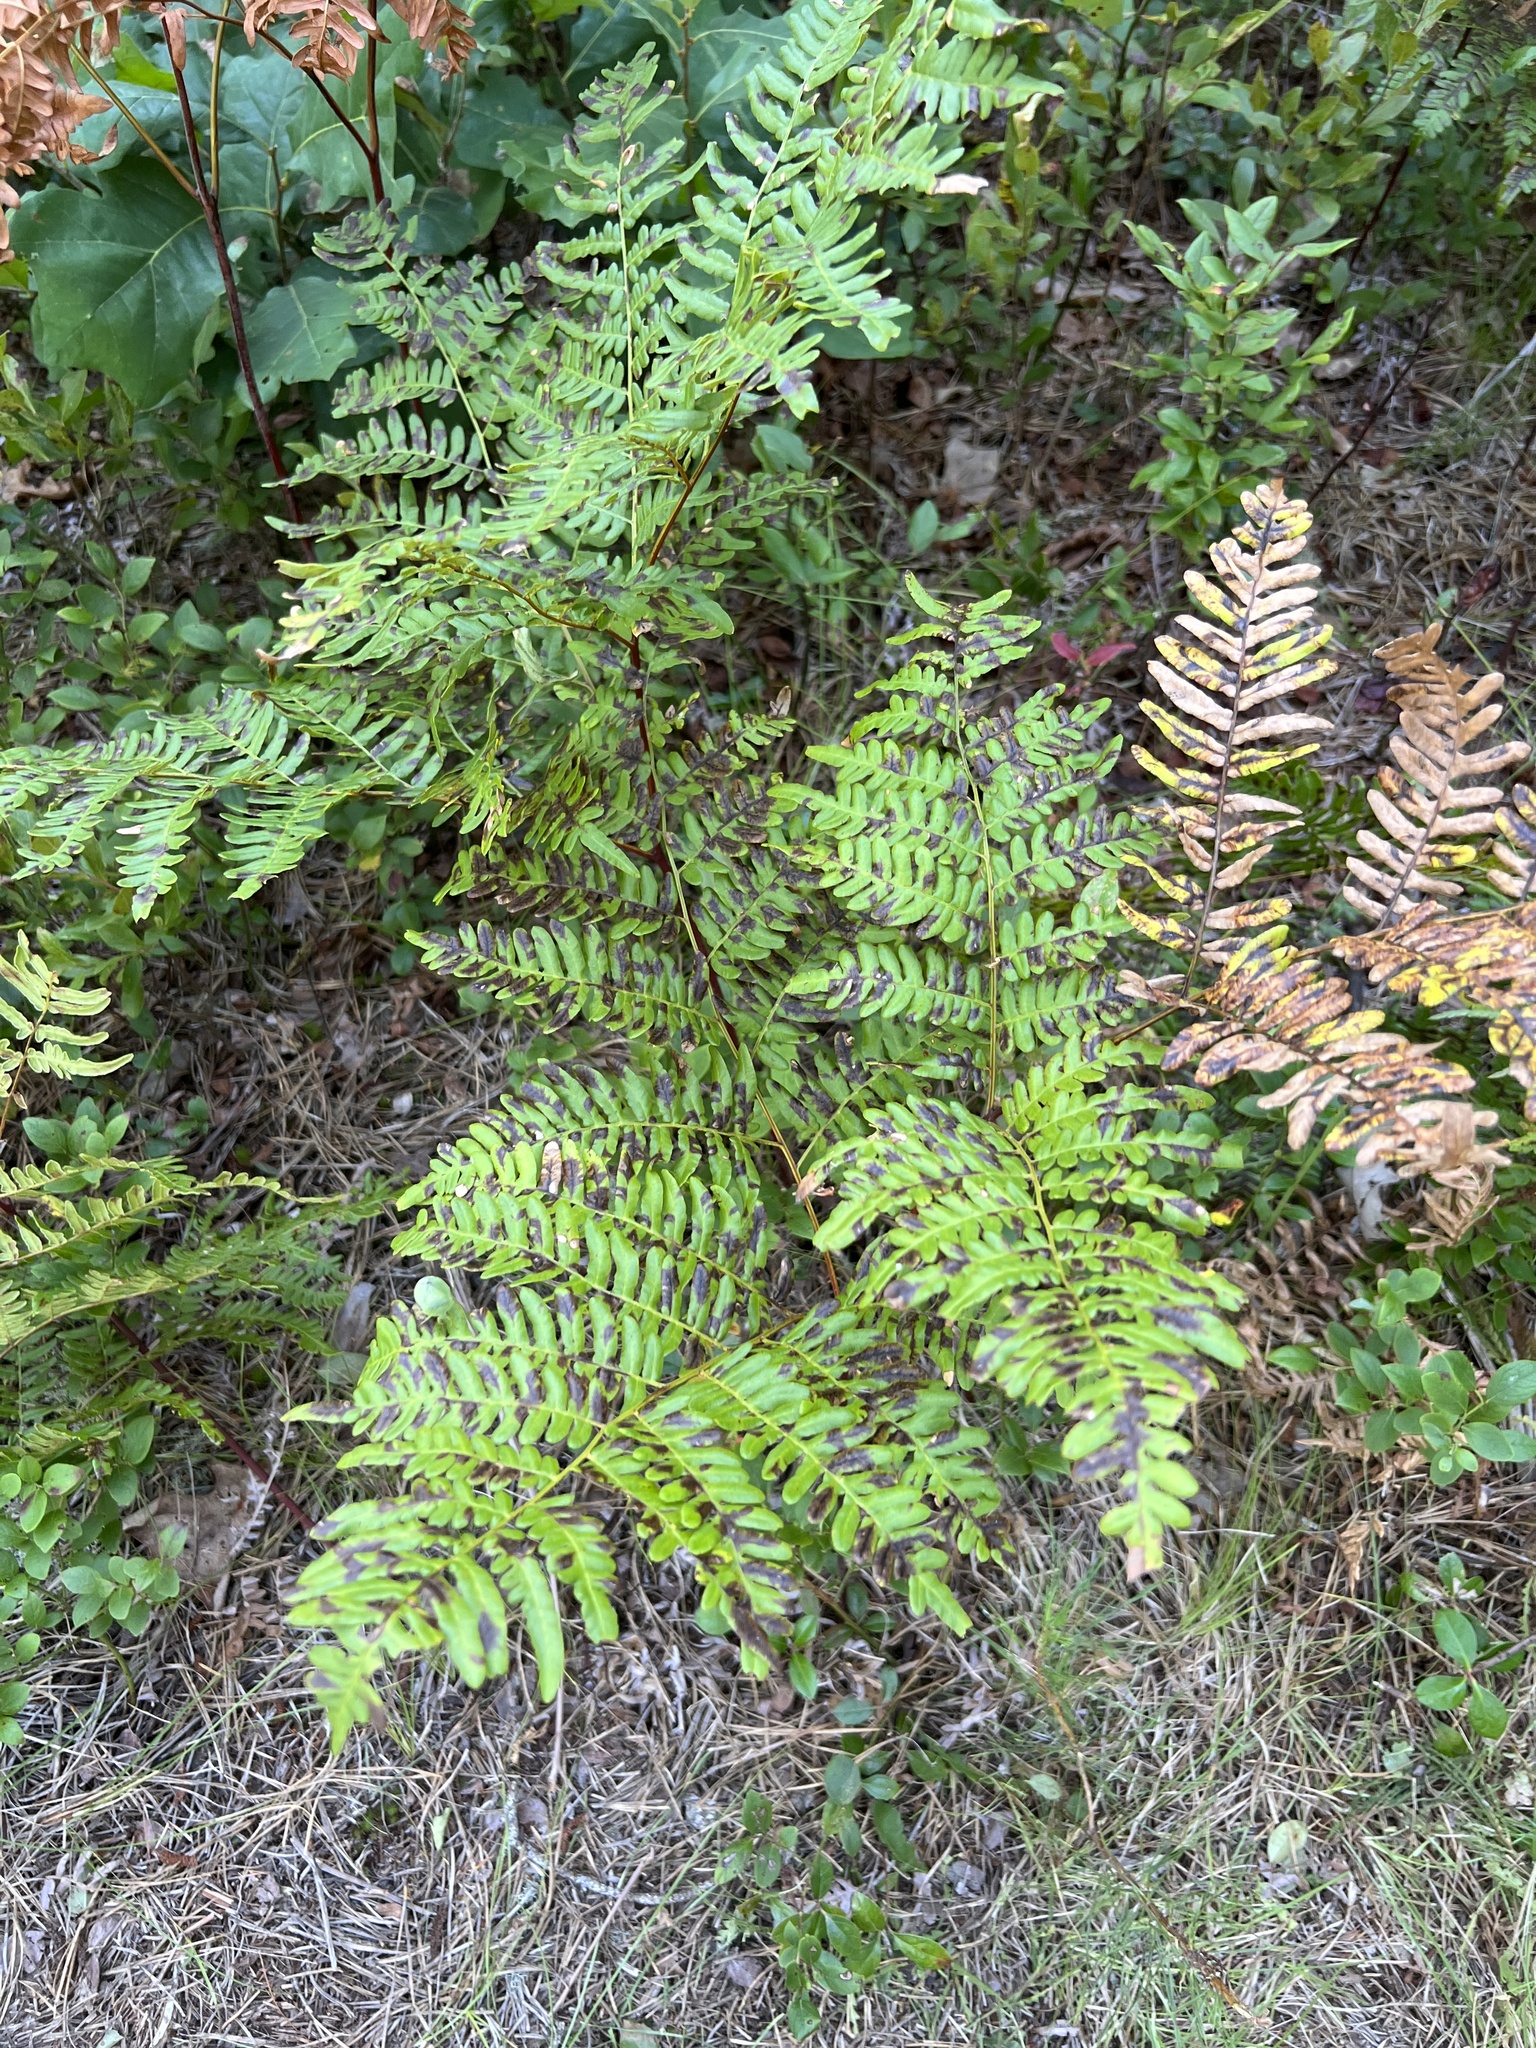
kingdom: Plantae
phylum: Tracheophyta
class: Polypodiopsida
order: Polypodiales
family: Dennstaedtiaceae
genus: Pteridium
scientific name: Pteridium aquilinum
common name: Bracken
